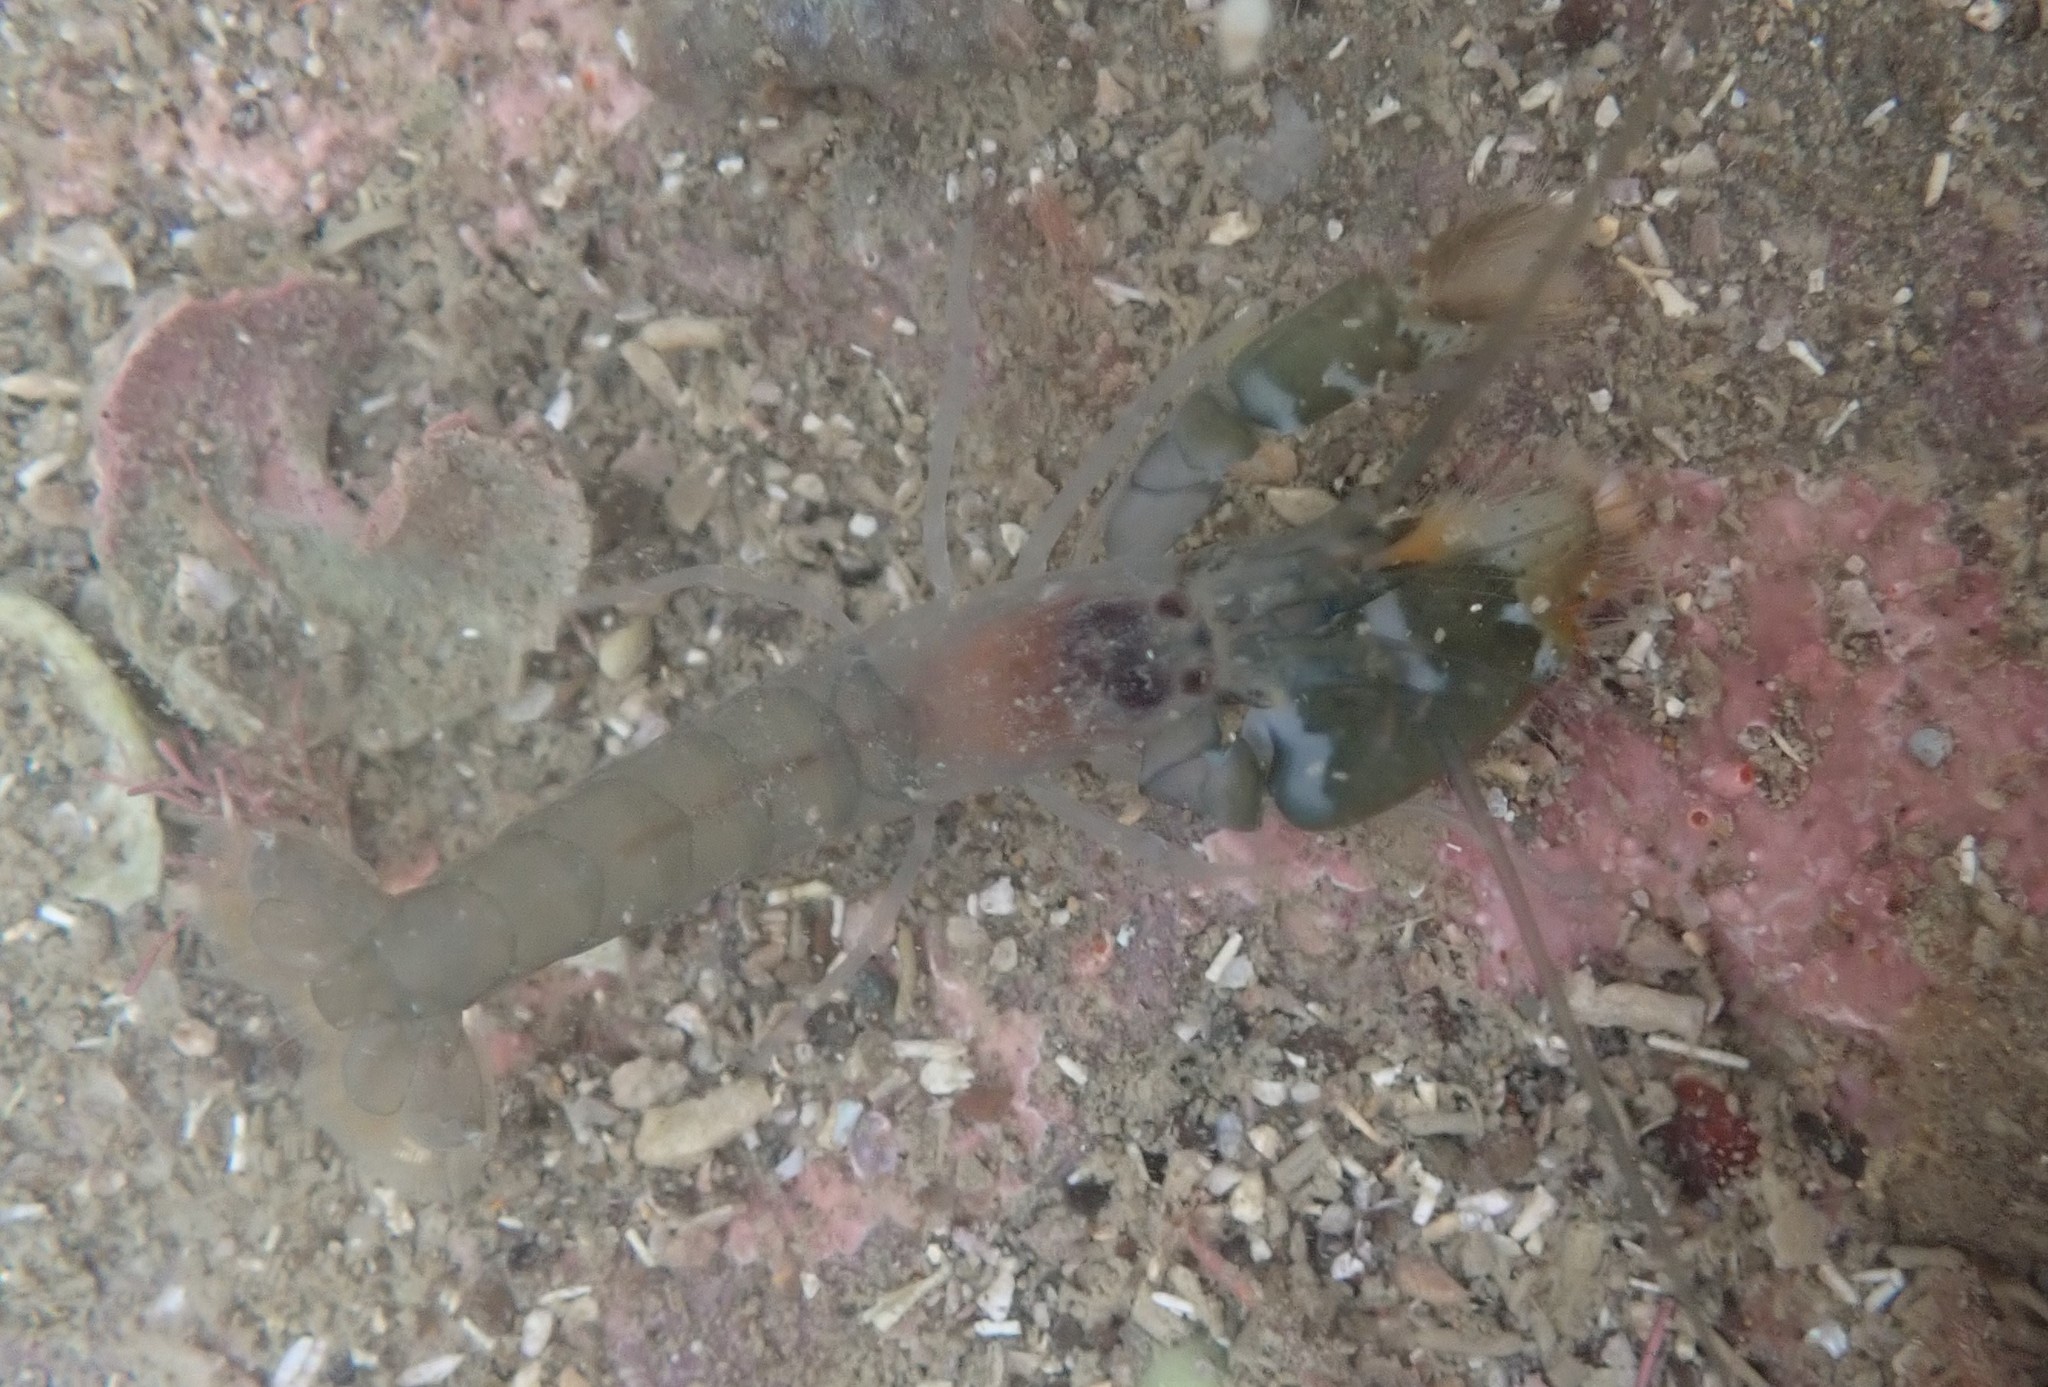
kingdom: Animalia
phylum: Arthropoda
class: Malacostraca
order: Decapoda
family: Alpheidae
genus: Alpheus
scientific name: Alpheus socialis
